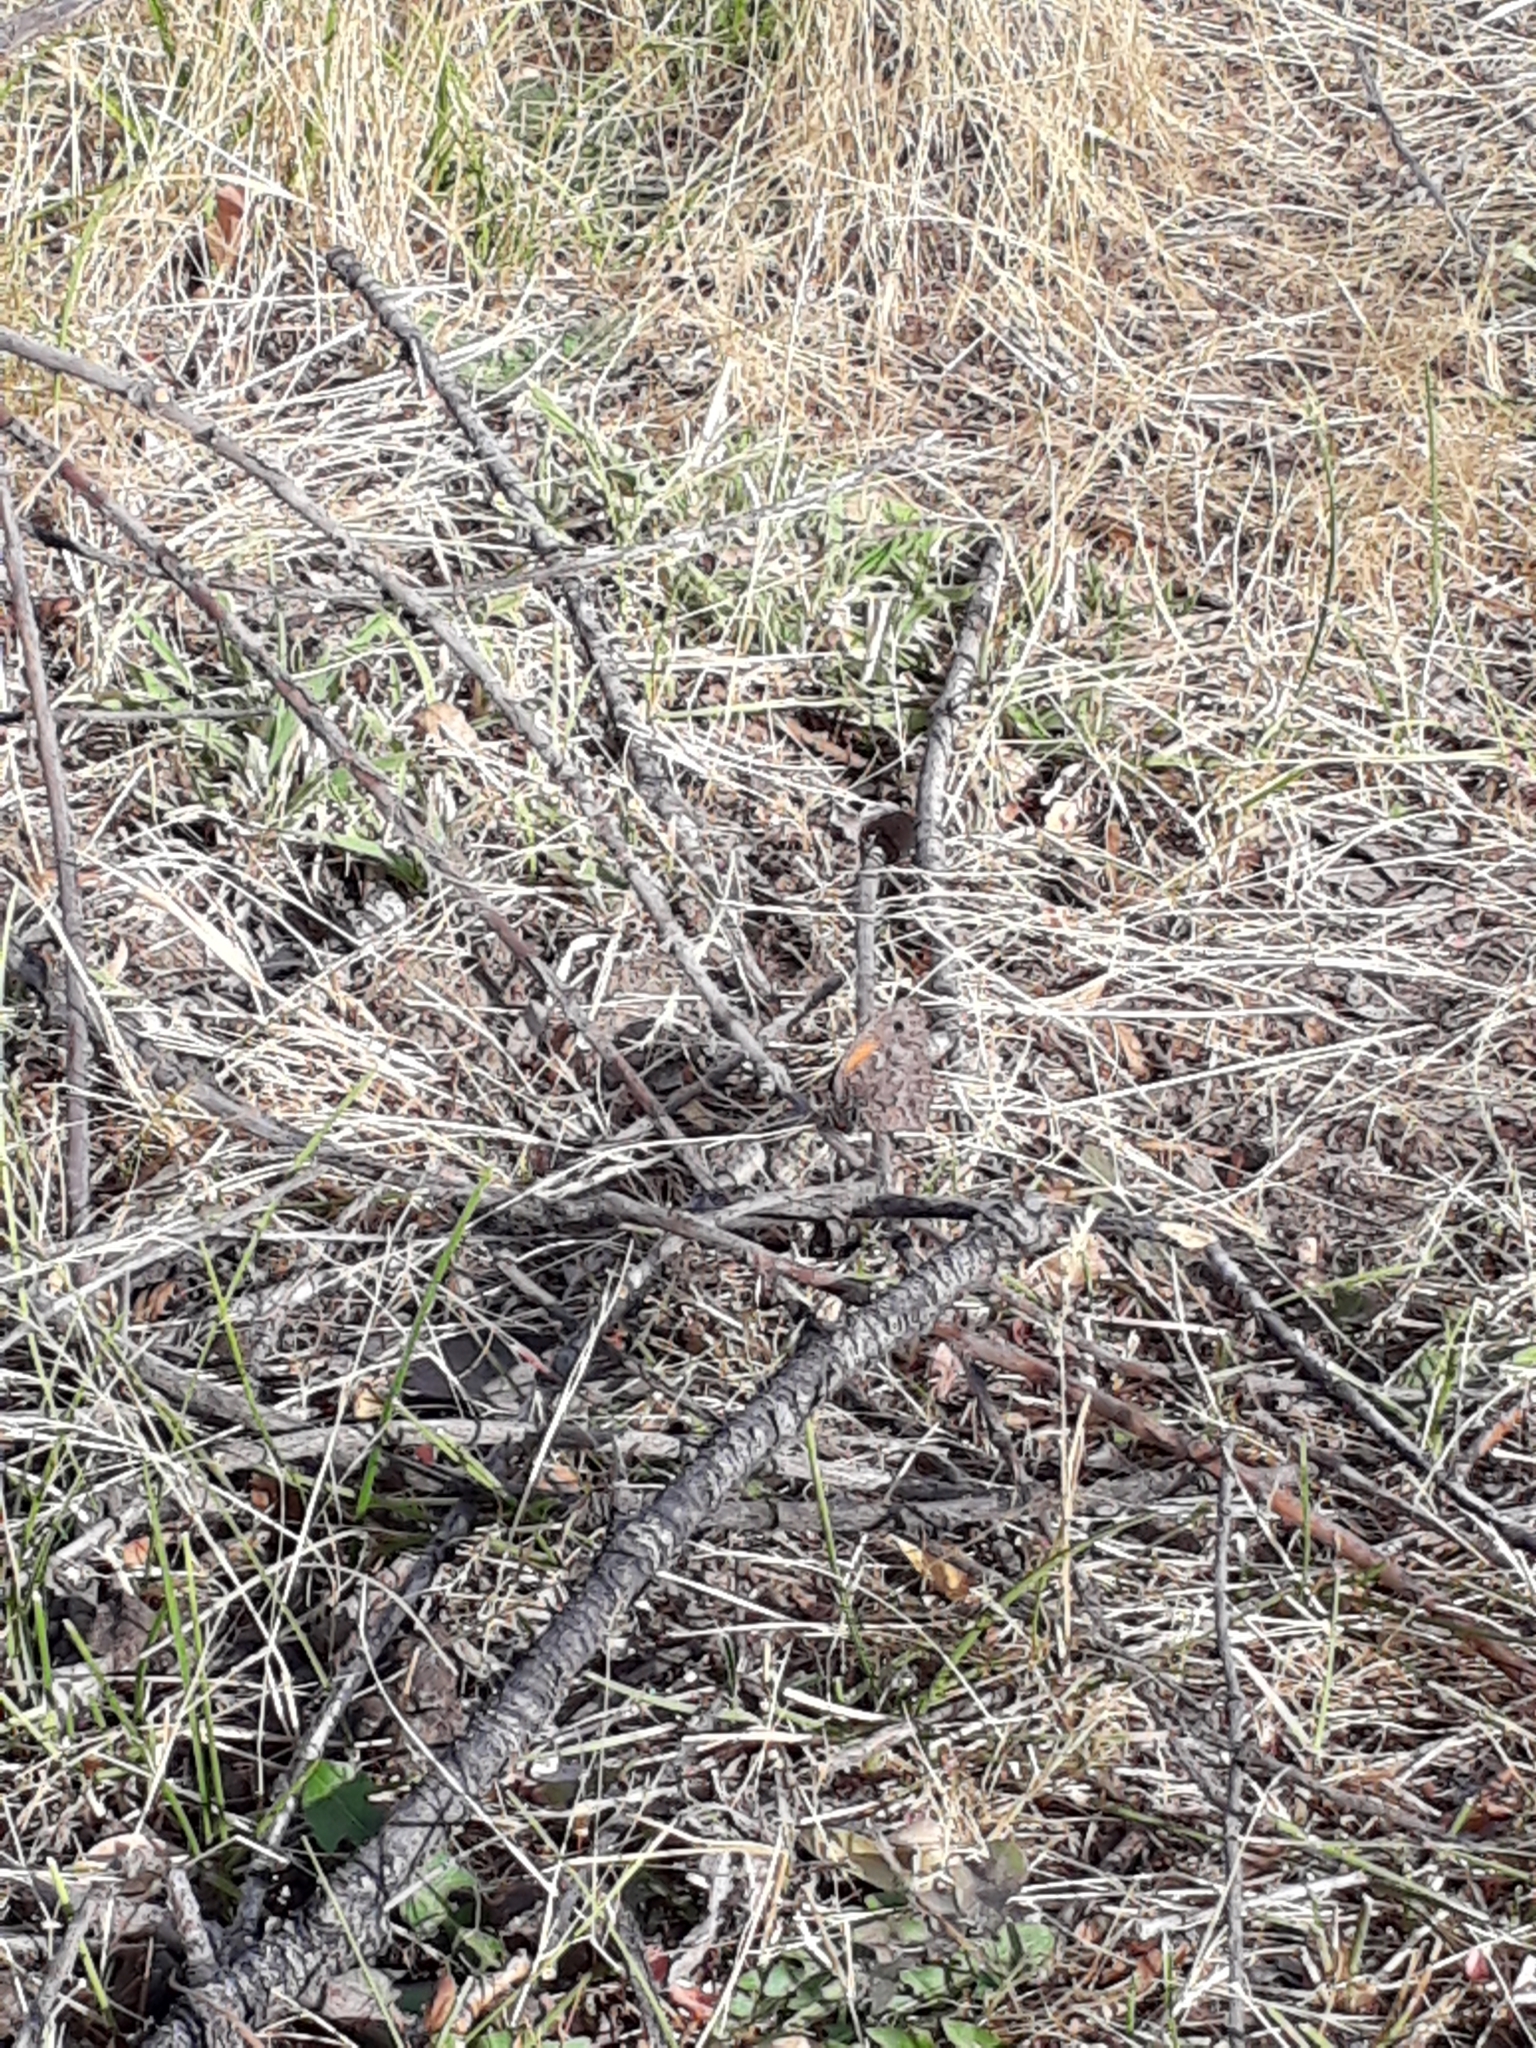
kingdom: Animalia
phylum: Arthropoda
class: Insecta
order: Lepidoptera
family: Nymphalidae
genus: Argyrophorus
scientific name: Argyrophorus
